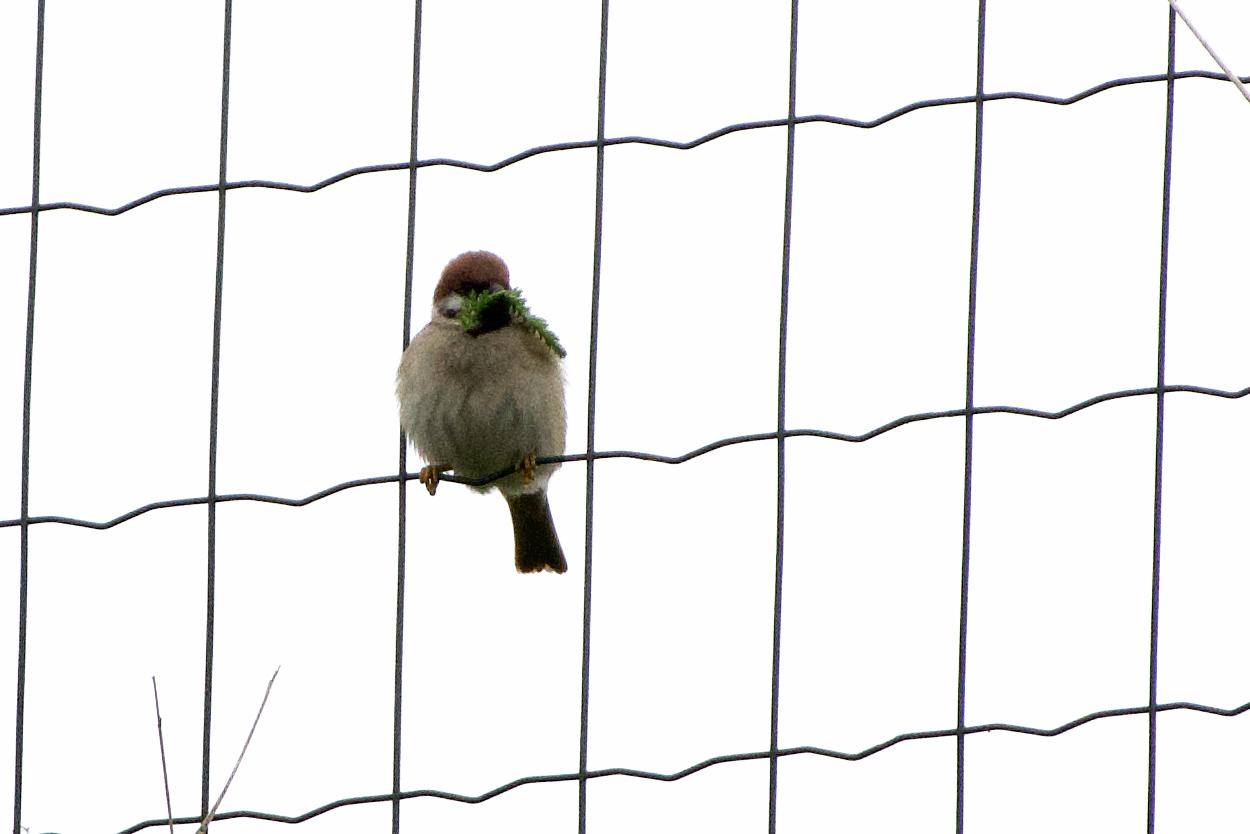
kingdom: Animalia
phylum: Chordata
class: Aves
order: Passeriformes
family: Passeridae
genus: Passer
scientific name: Passer montanus
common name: Eurasian tree sparrow
